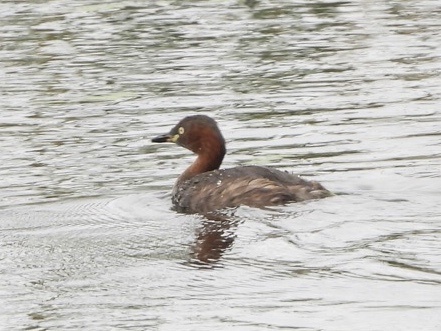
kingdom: Animalia
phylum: Chordata
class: Aves
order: Podicipediformes
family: Podicipedidae
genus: Tachybaptus
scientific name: Tachybaptus ruficollis
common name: Little grebe
